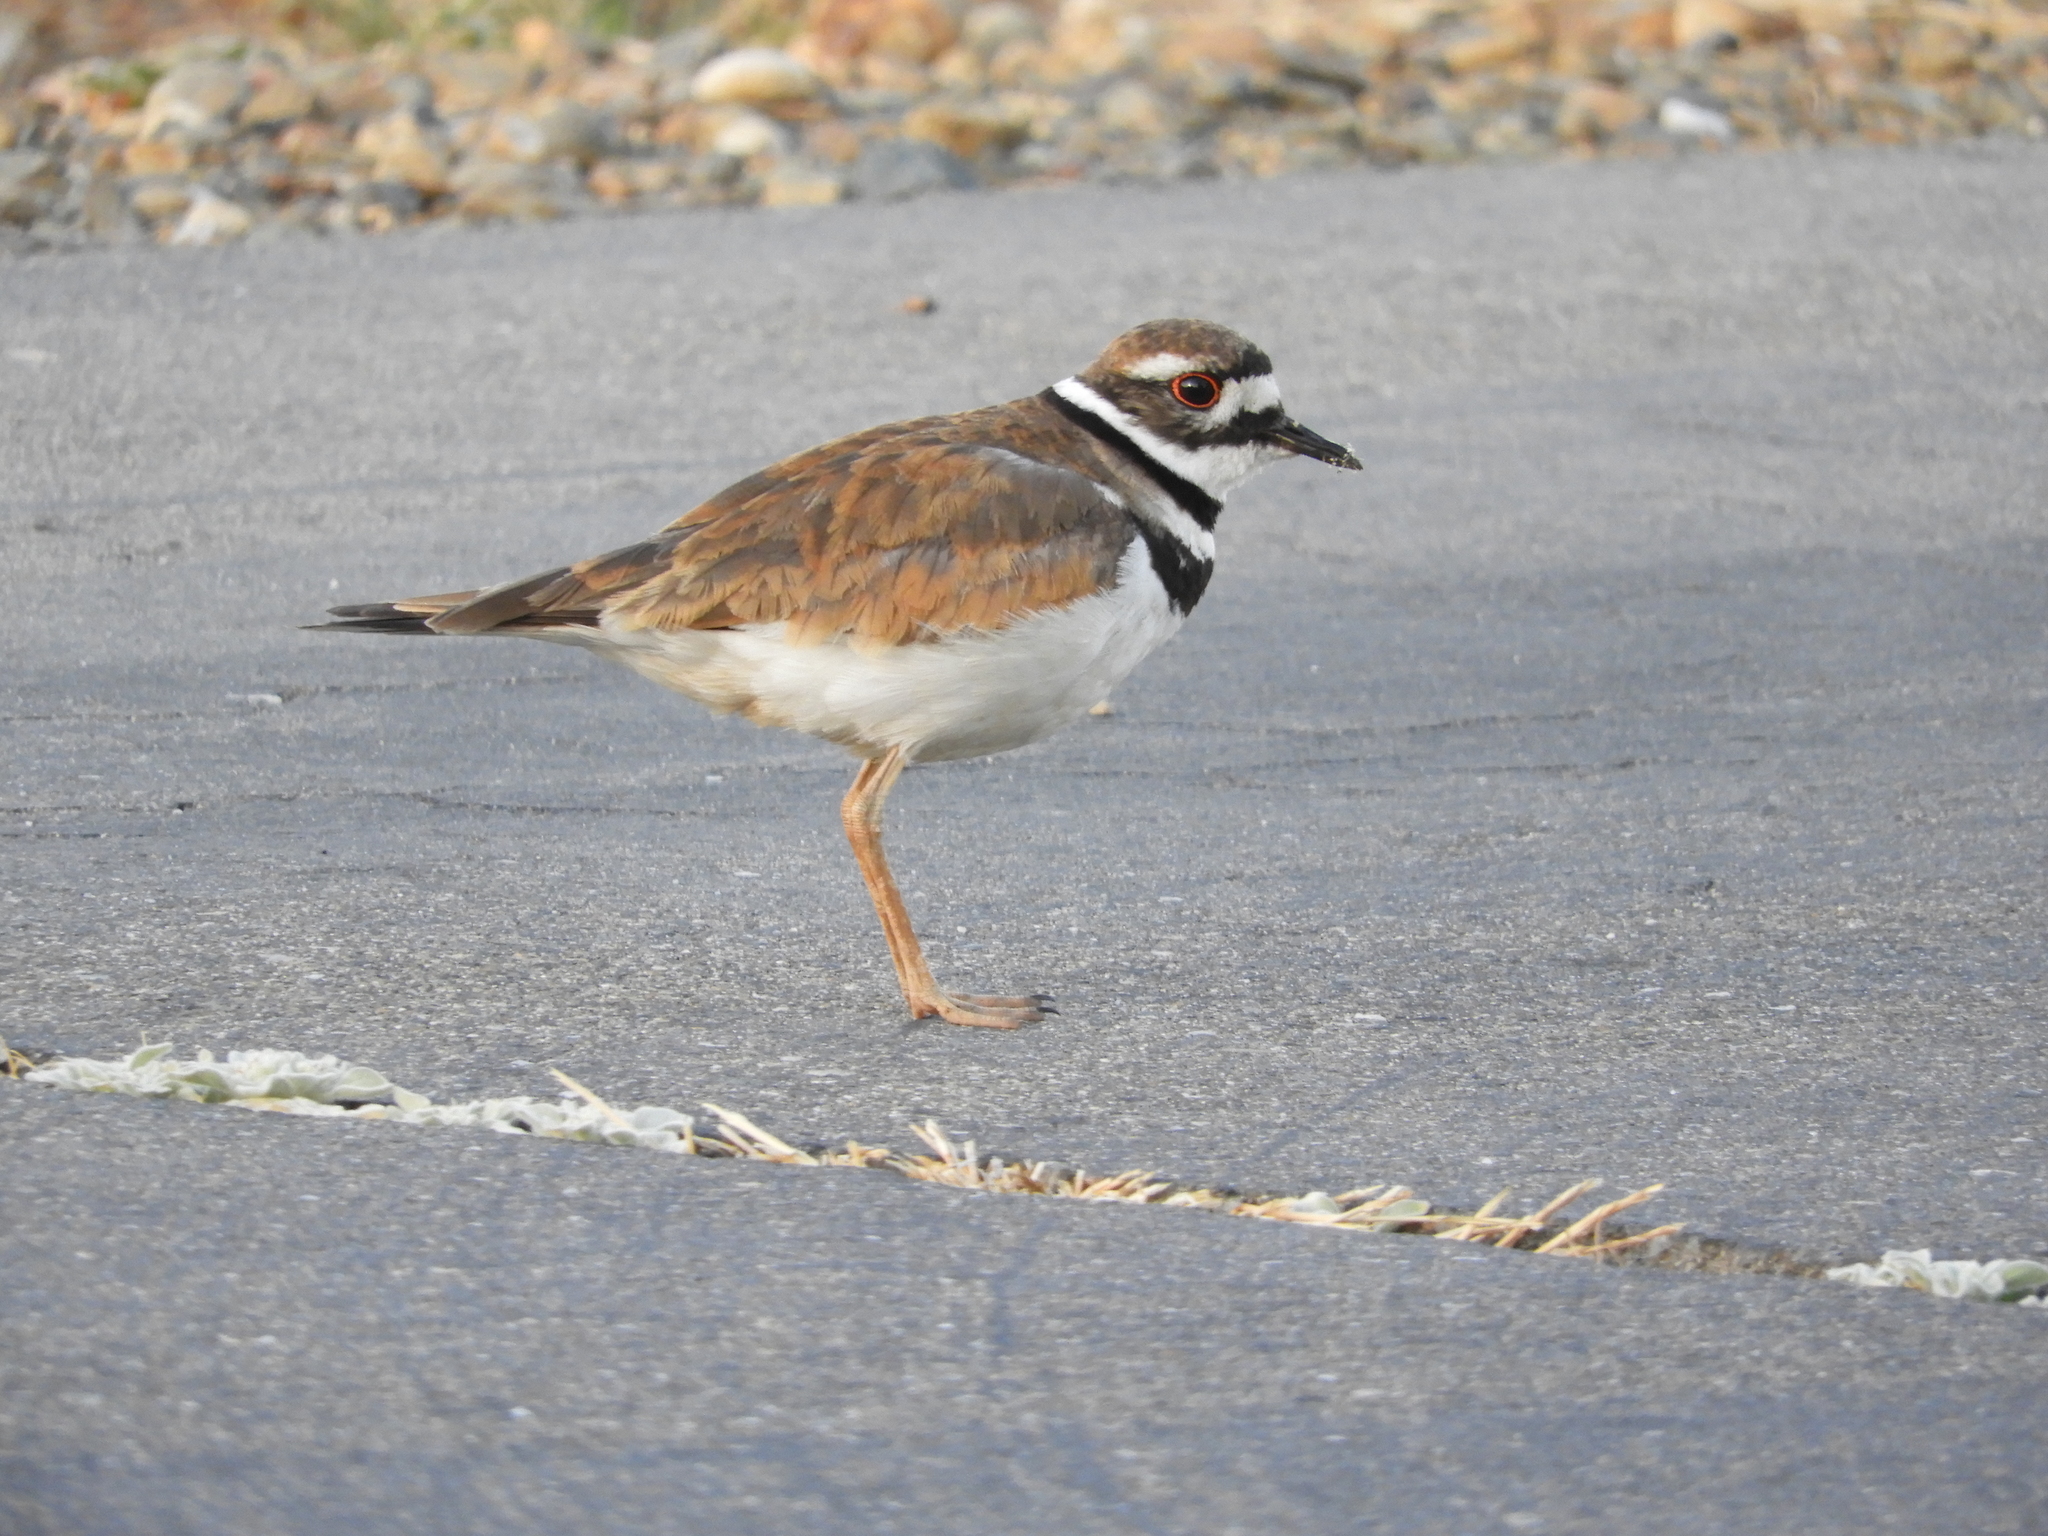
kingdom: Animalia
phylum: Chordata
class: Aves
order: Charadriiformes
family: Charadriidae
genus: Charadrius
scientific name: Charadrius vociferus
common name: Killdeer
